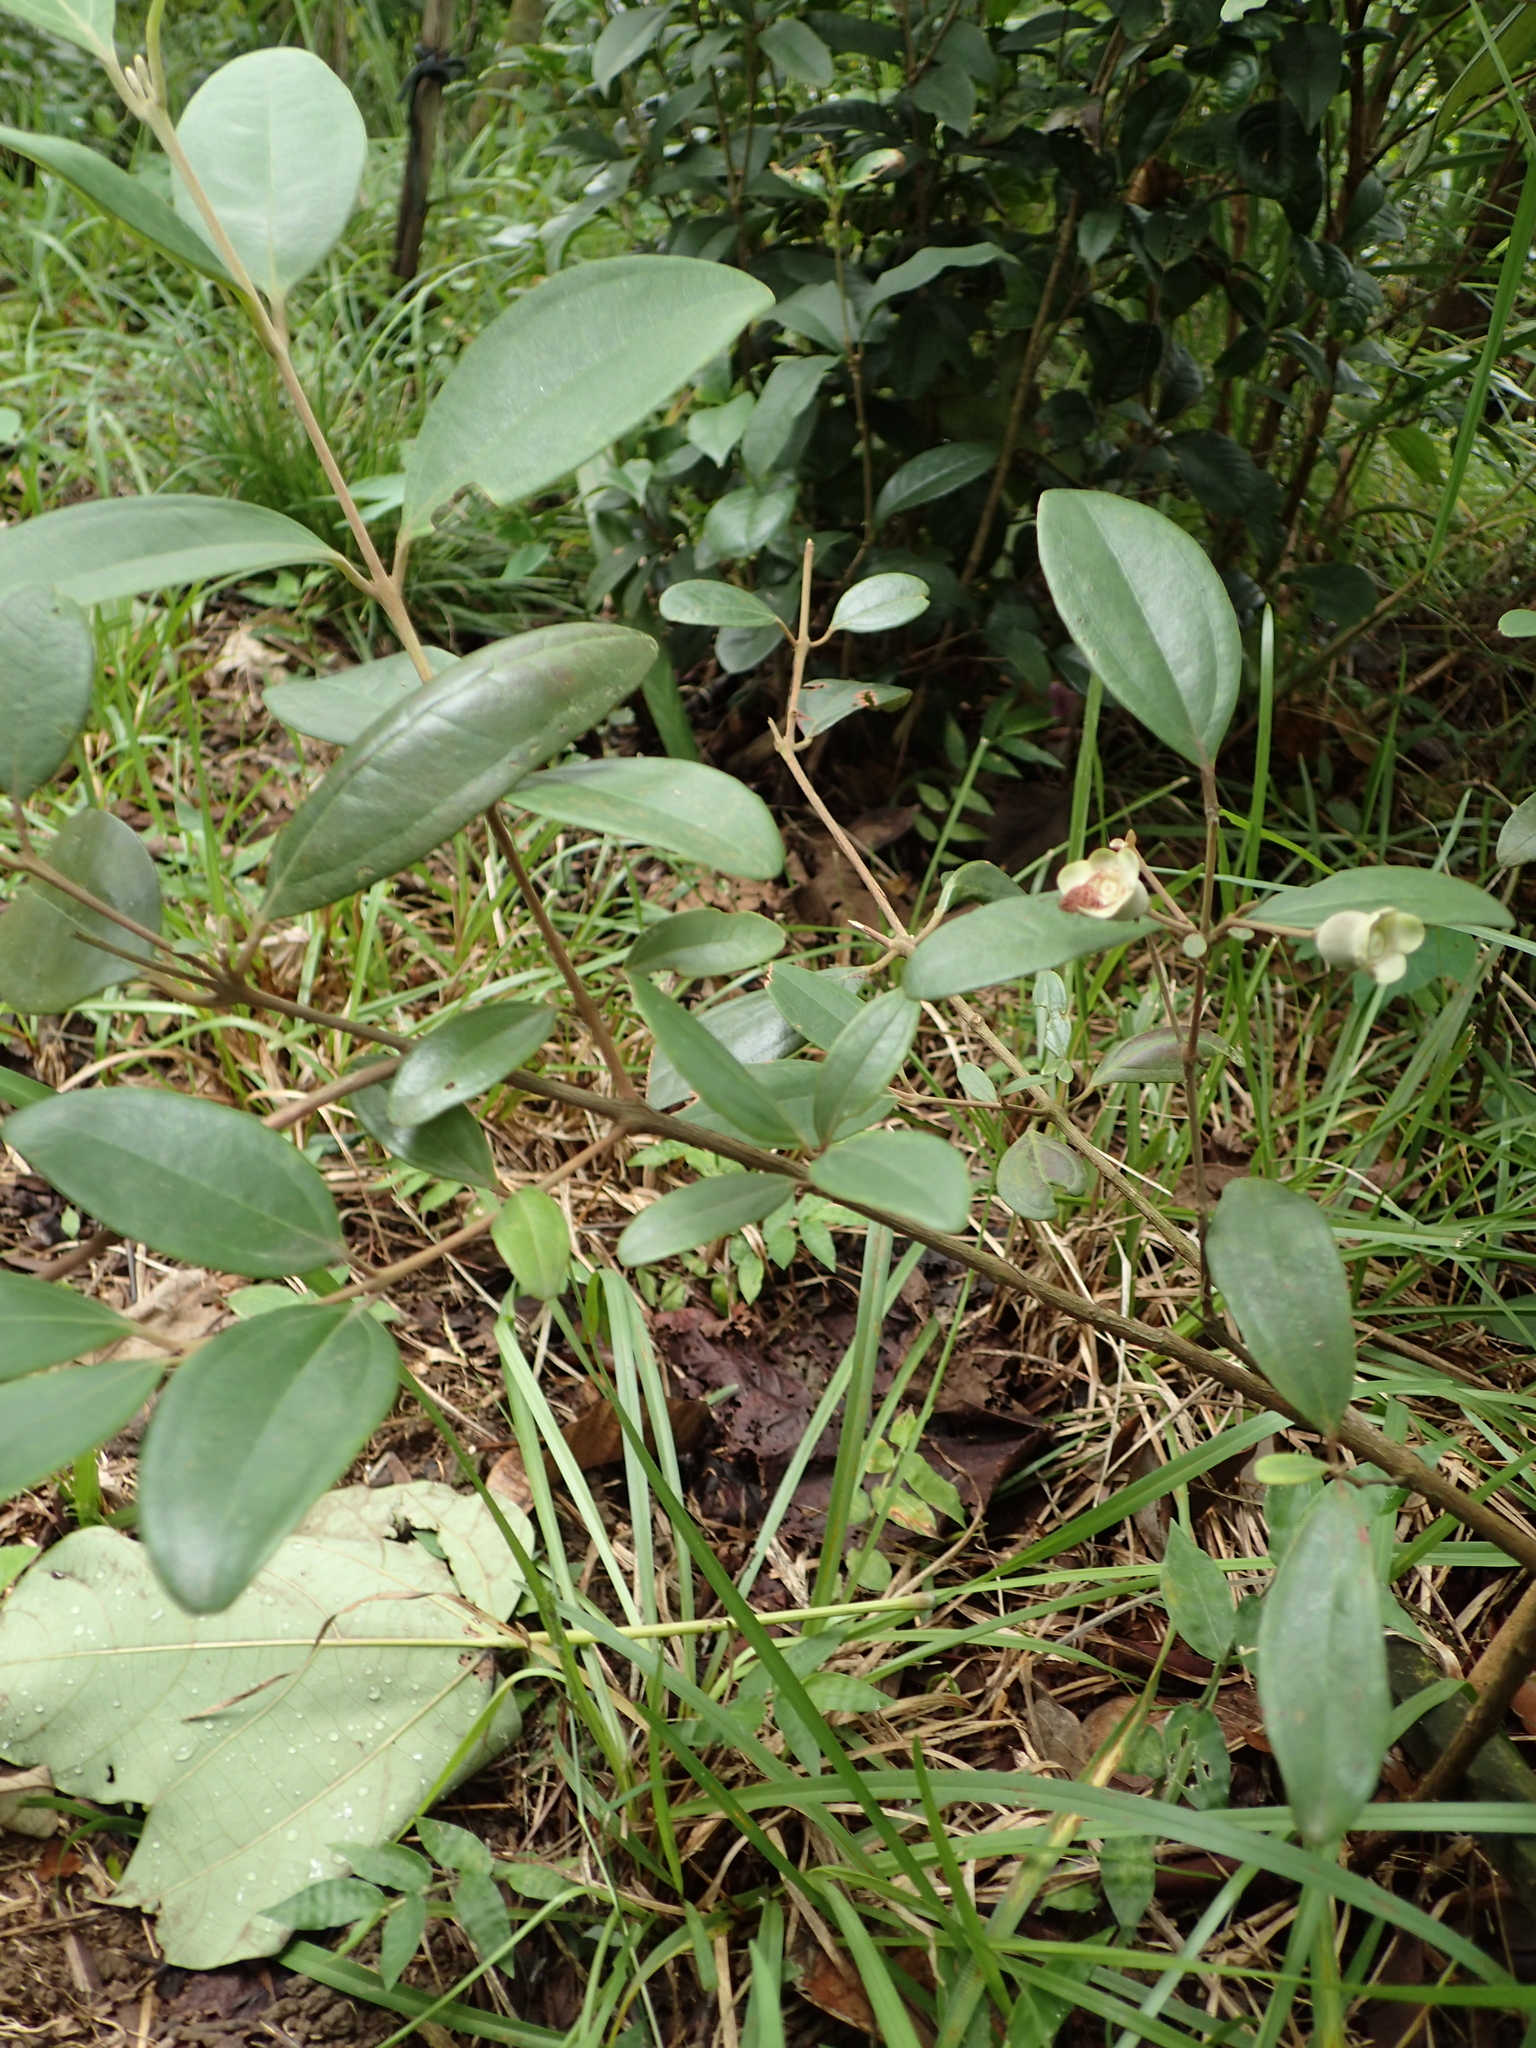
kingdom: Plantae
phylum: Tracheophyta
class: Magnoliopsida
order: Myrtales
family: Myrtaceae
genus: Rhodomyrtus
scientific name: Rhodomyrtus tomentosa
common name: Rose myrtle
